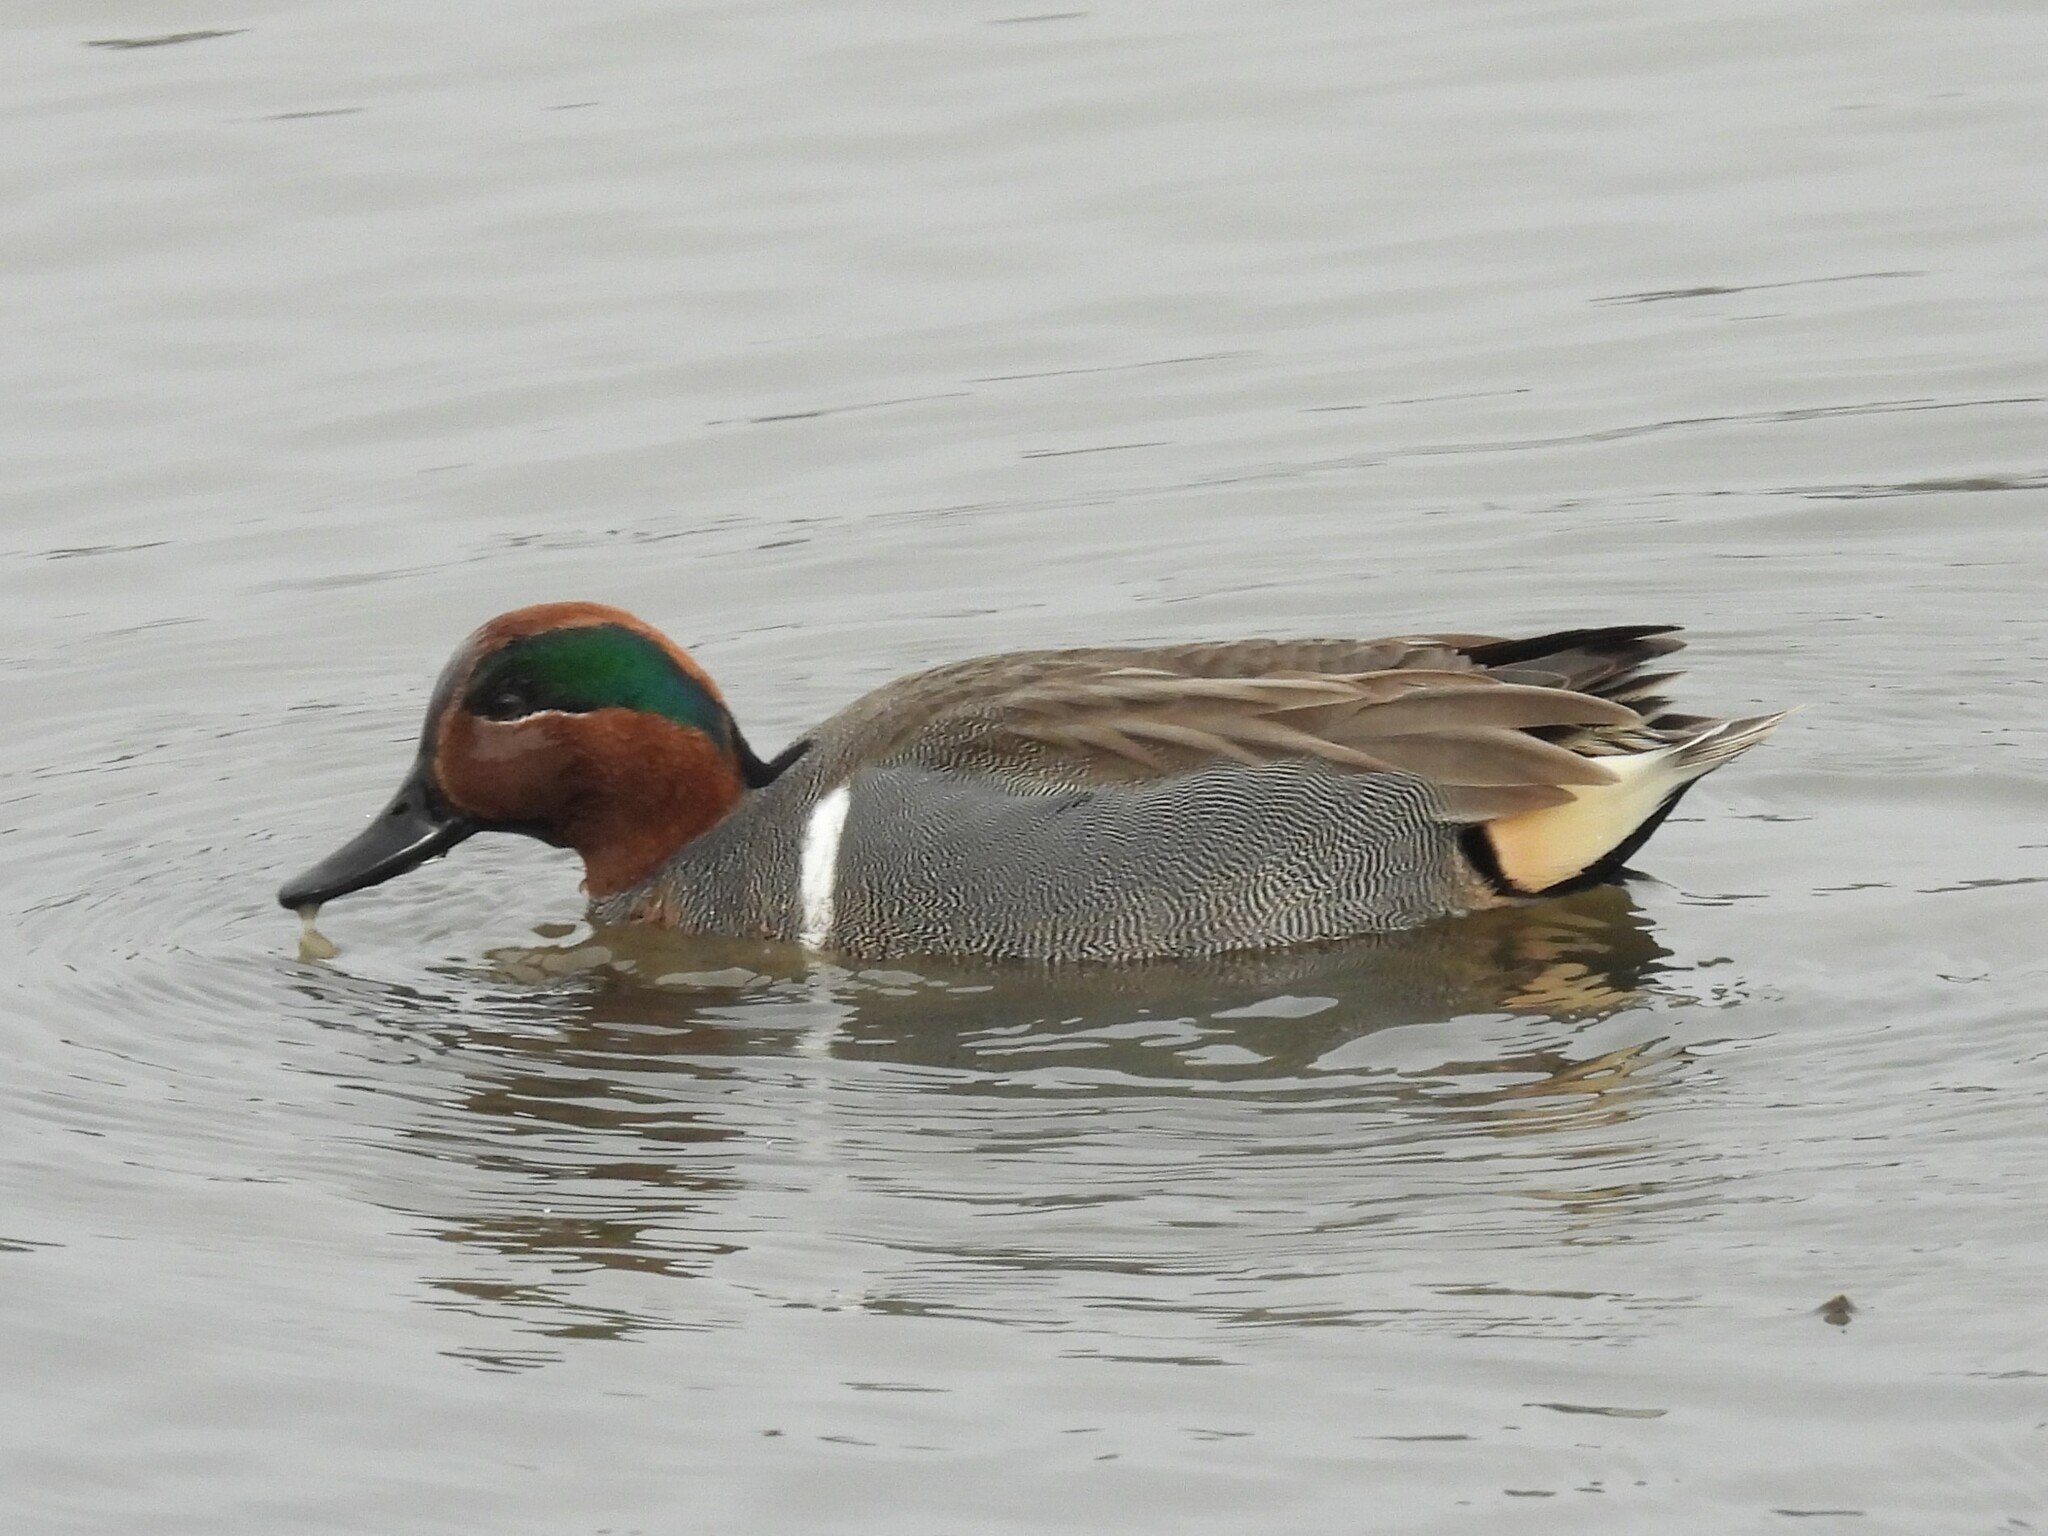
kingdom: Animalia
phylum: Chordata
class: Aves
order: Anseriformes
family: Anatidae
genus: Anas
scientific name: Anas crecca
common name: Eurasian teal
